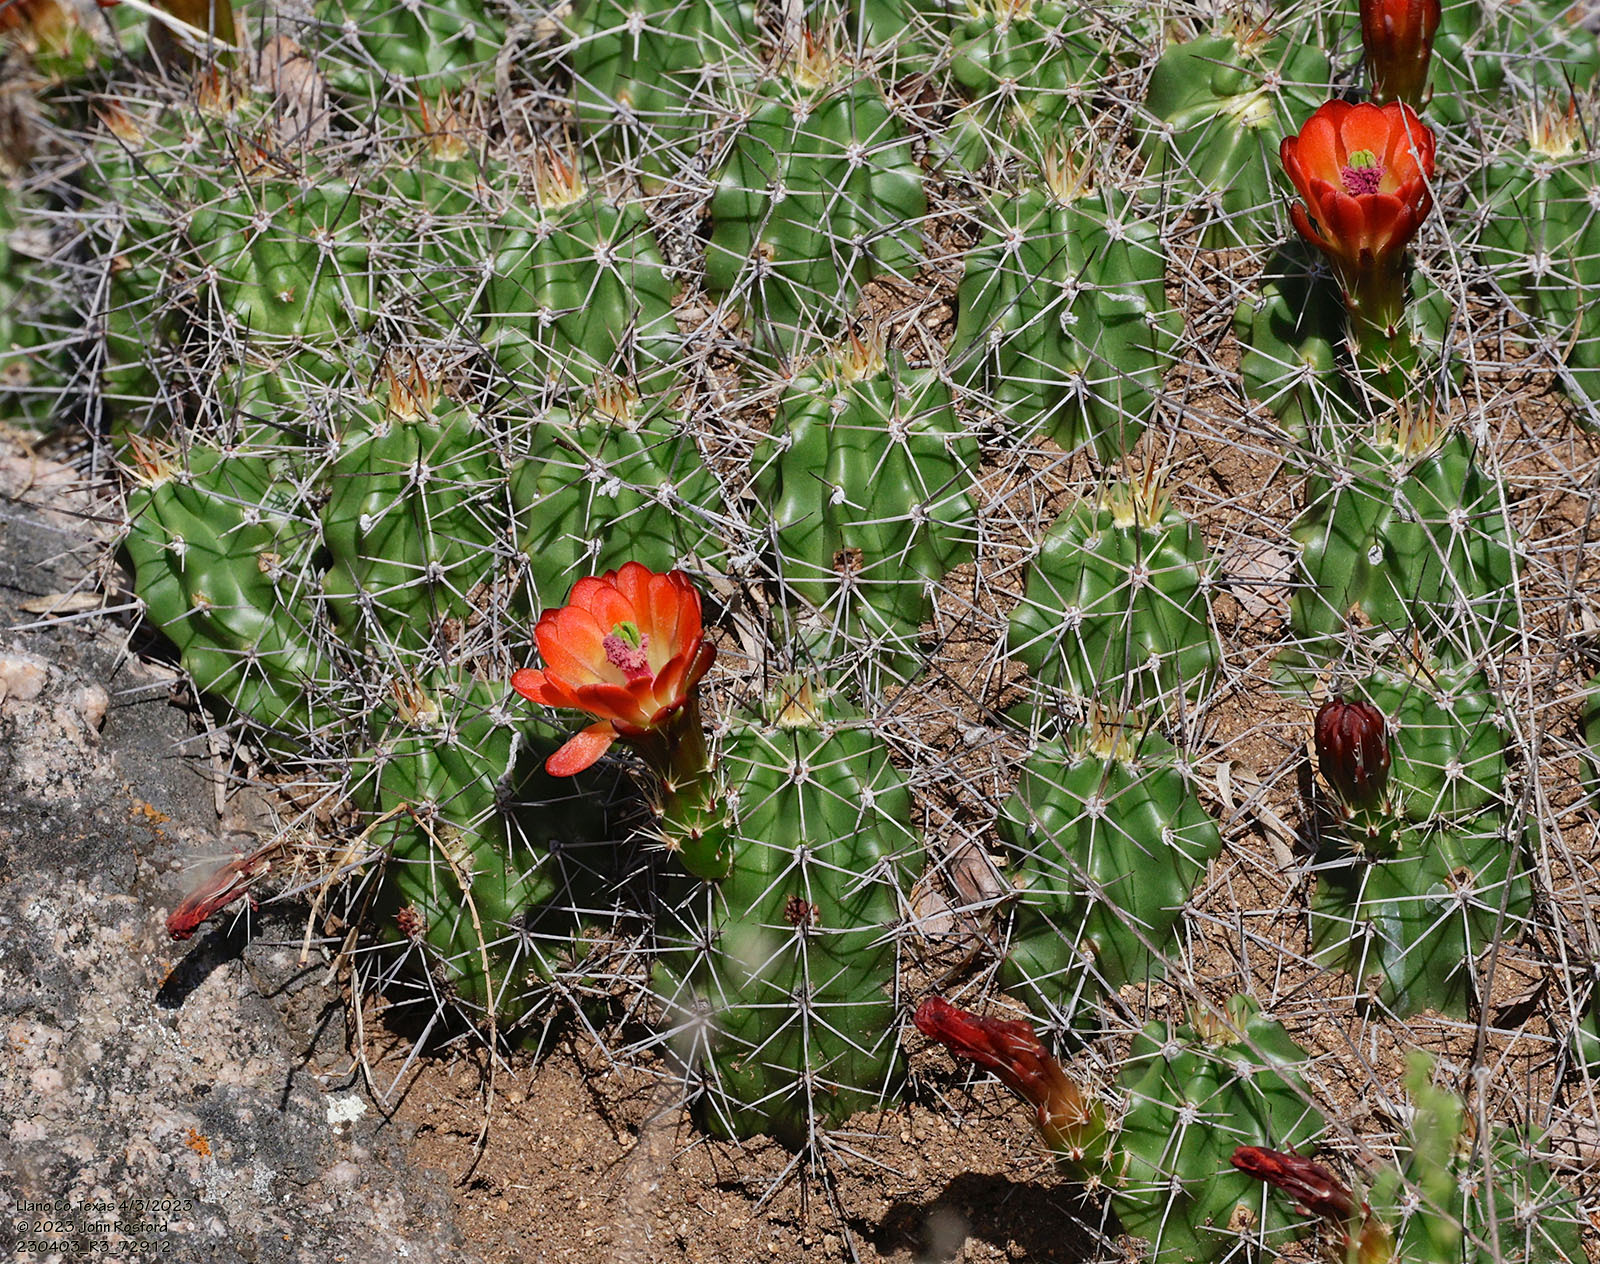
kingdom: Plantae
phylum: Tracheophyta
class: Magnoliopsida
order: Caryophyllales
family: Cactaceae
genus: Echinocereus
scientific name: Echinocereus coccineus
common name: Scarlet hedgehog cactus
